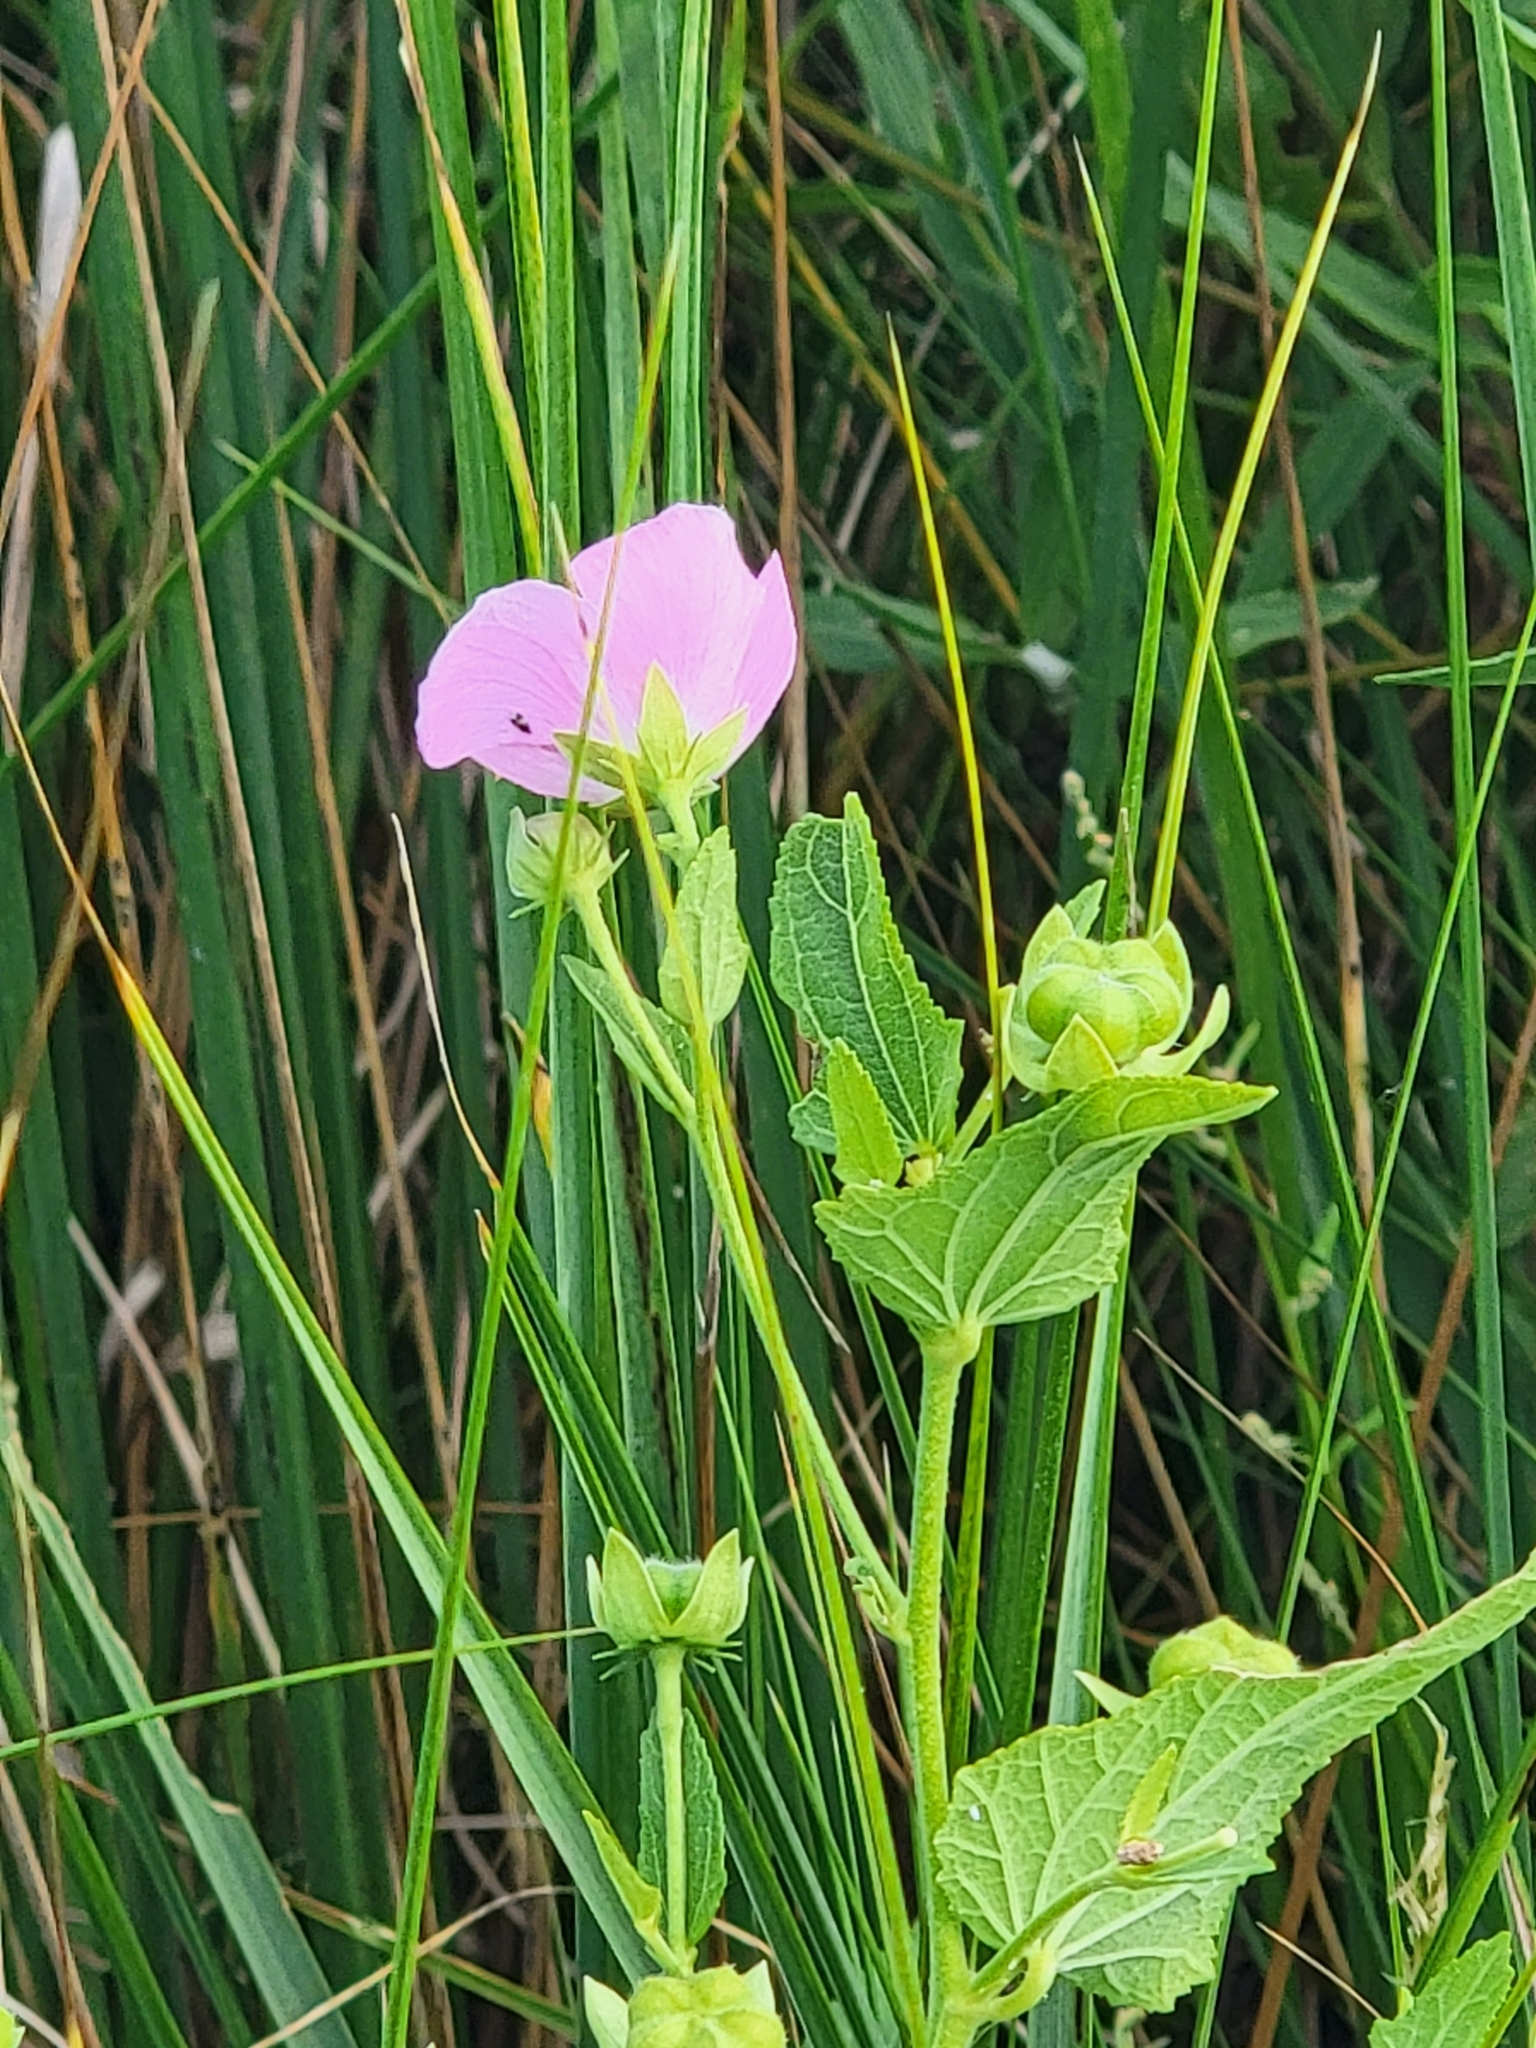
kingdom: Plantae
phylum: Tracheophyta
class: Magnoliopsida
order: Malvales
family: Malvaceae
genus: Kosteletzkya
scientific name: Kosteletzkya pentacarpos
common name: Virginia saltmarsh mallow
